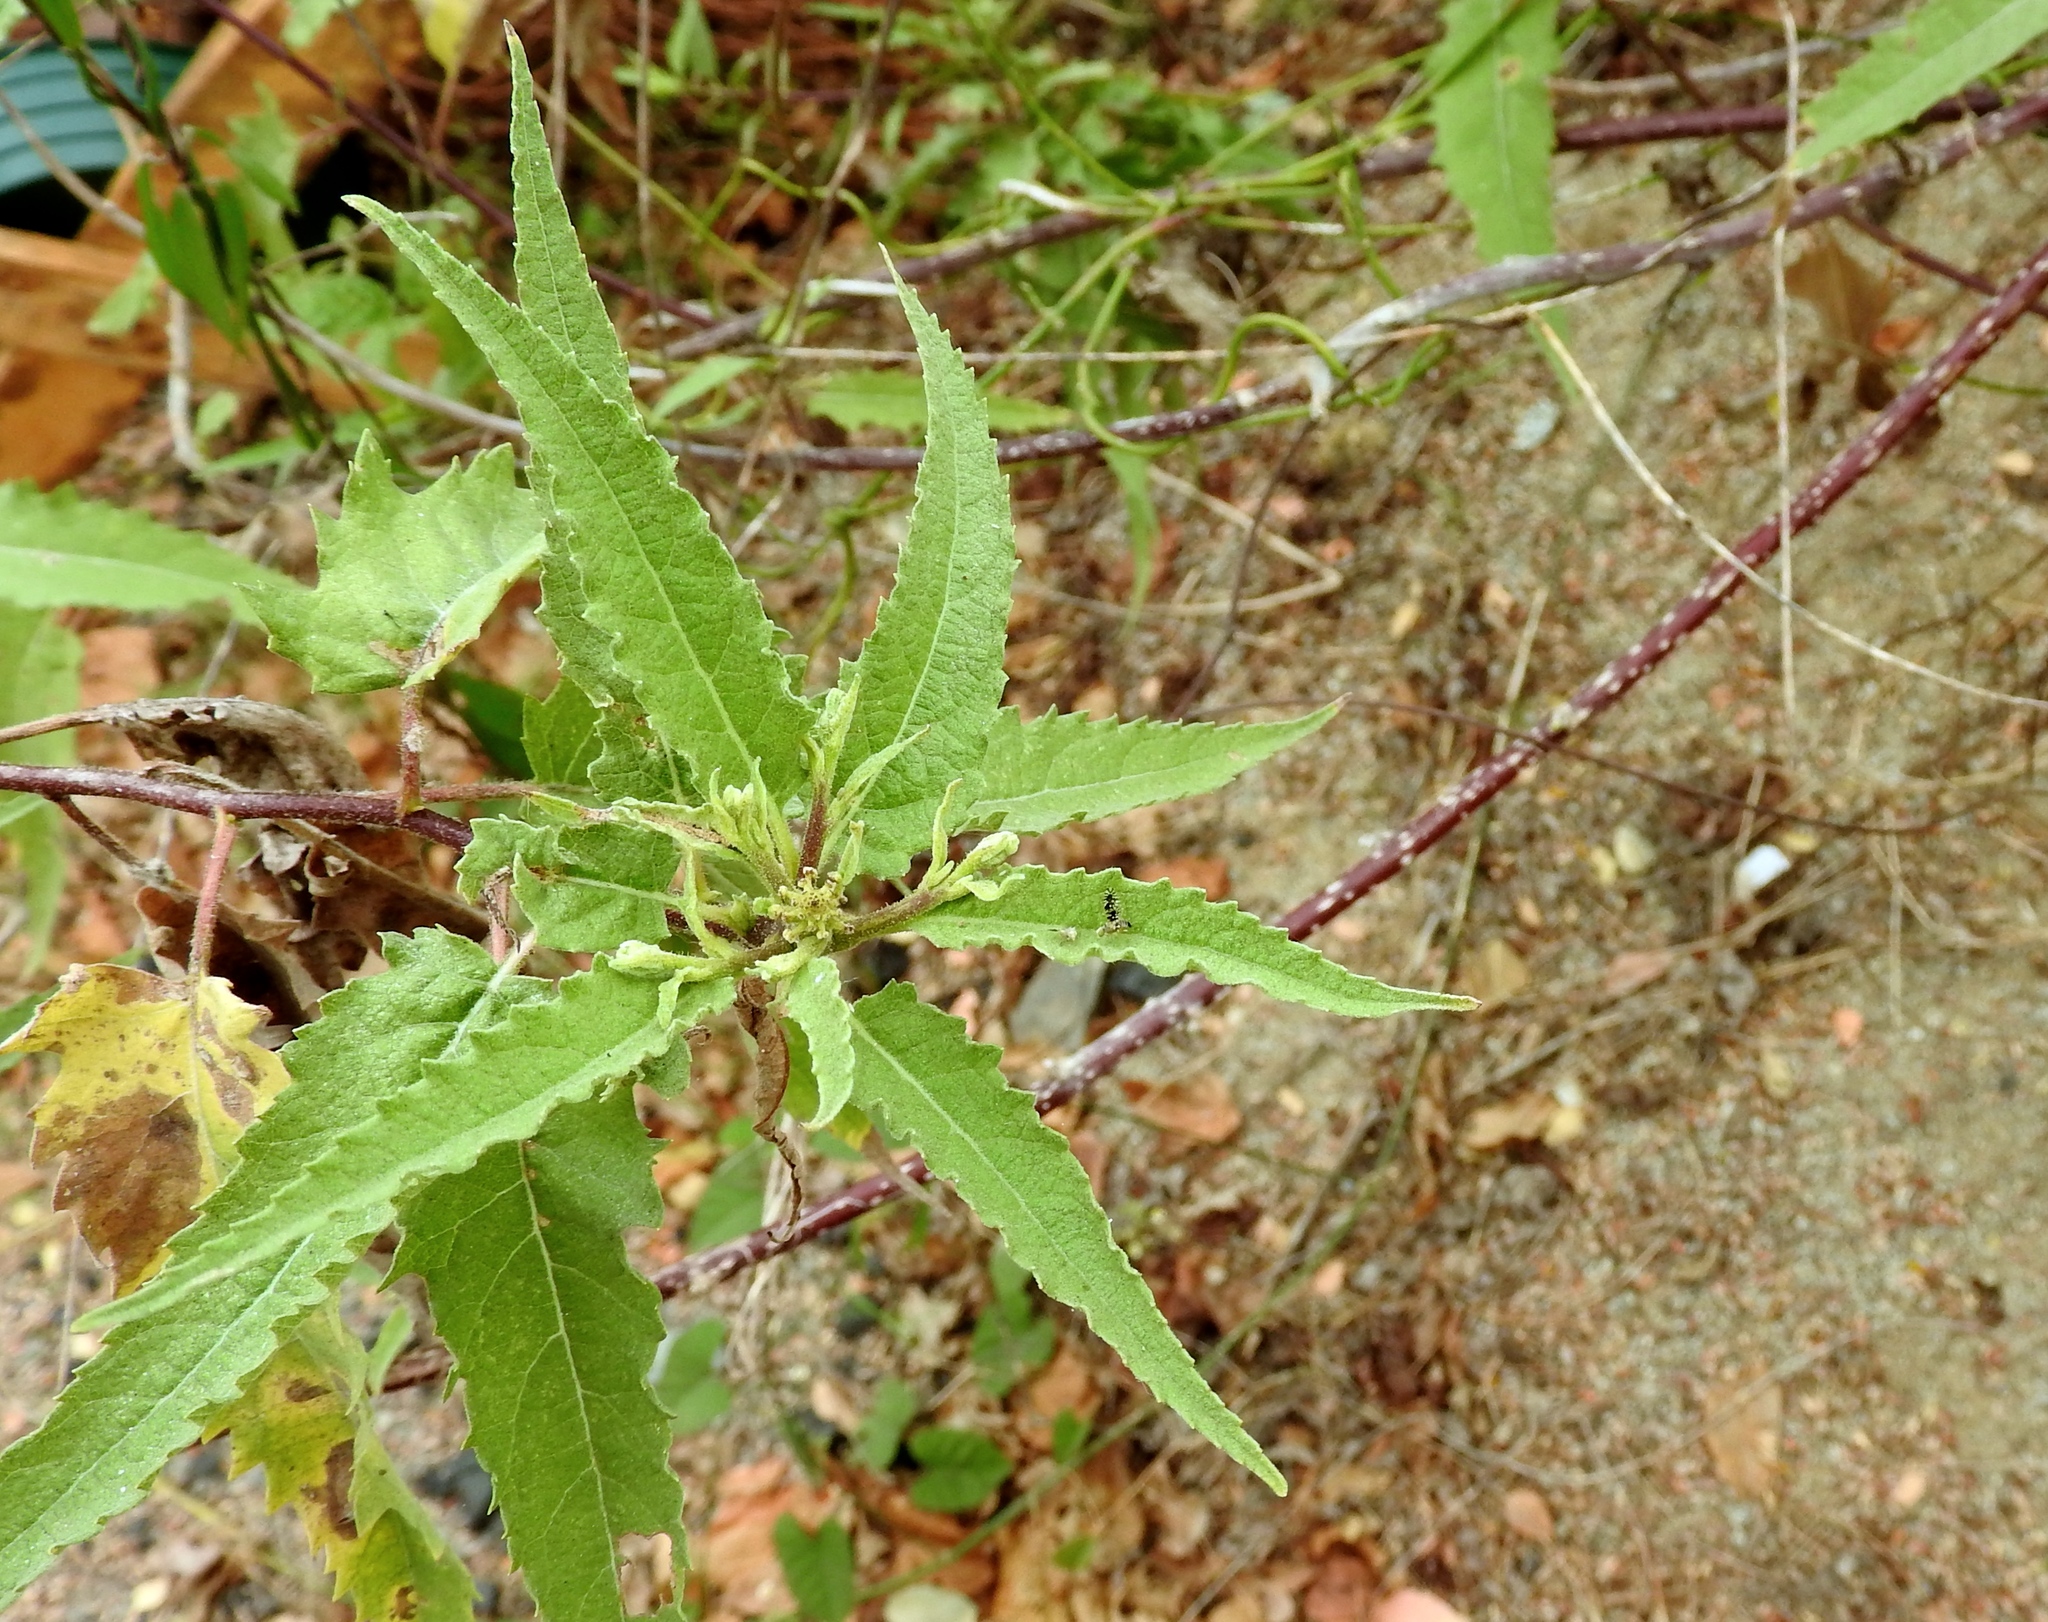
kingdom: Plantae
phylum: Tracheophyta
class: Magnoliopsida
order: Asterales
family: Asteraceae
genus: Ambrosia
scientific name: Ambrosia ambrosioides
